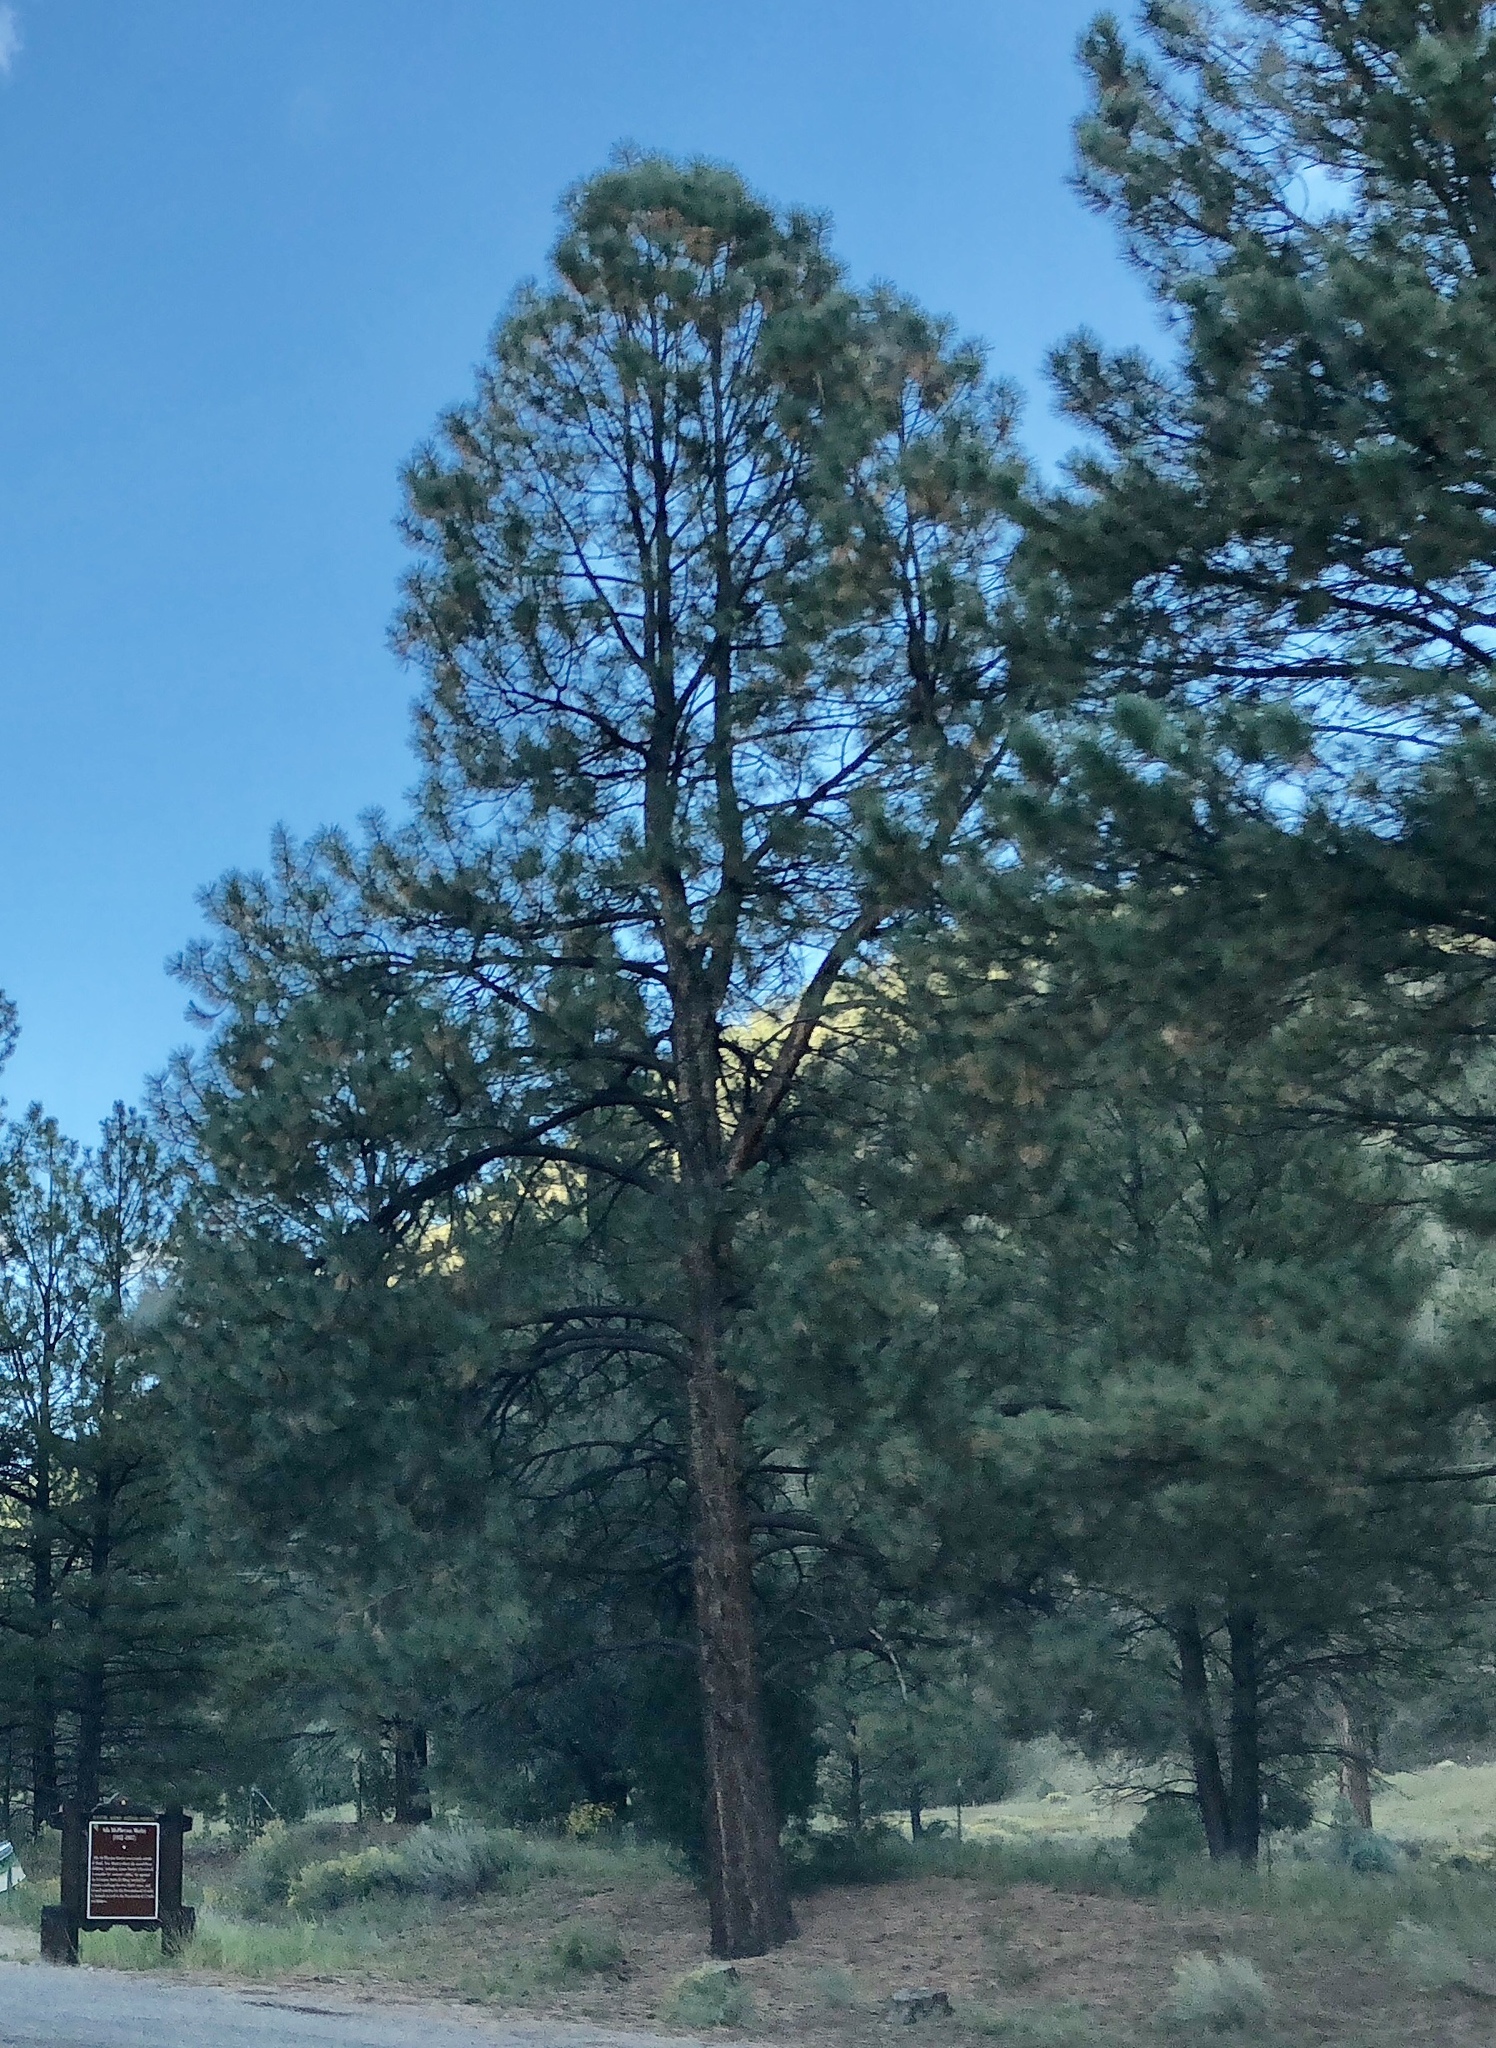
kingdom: Plantae
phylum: Tracheophyta
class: Pinopsida
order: Pinales
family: Pinaceae
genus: Pinus
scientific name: Pinus ponderosa
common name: Western yellow-pine
